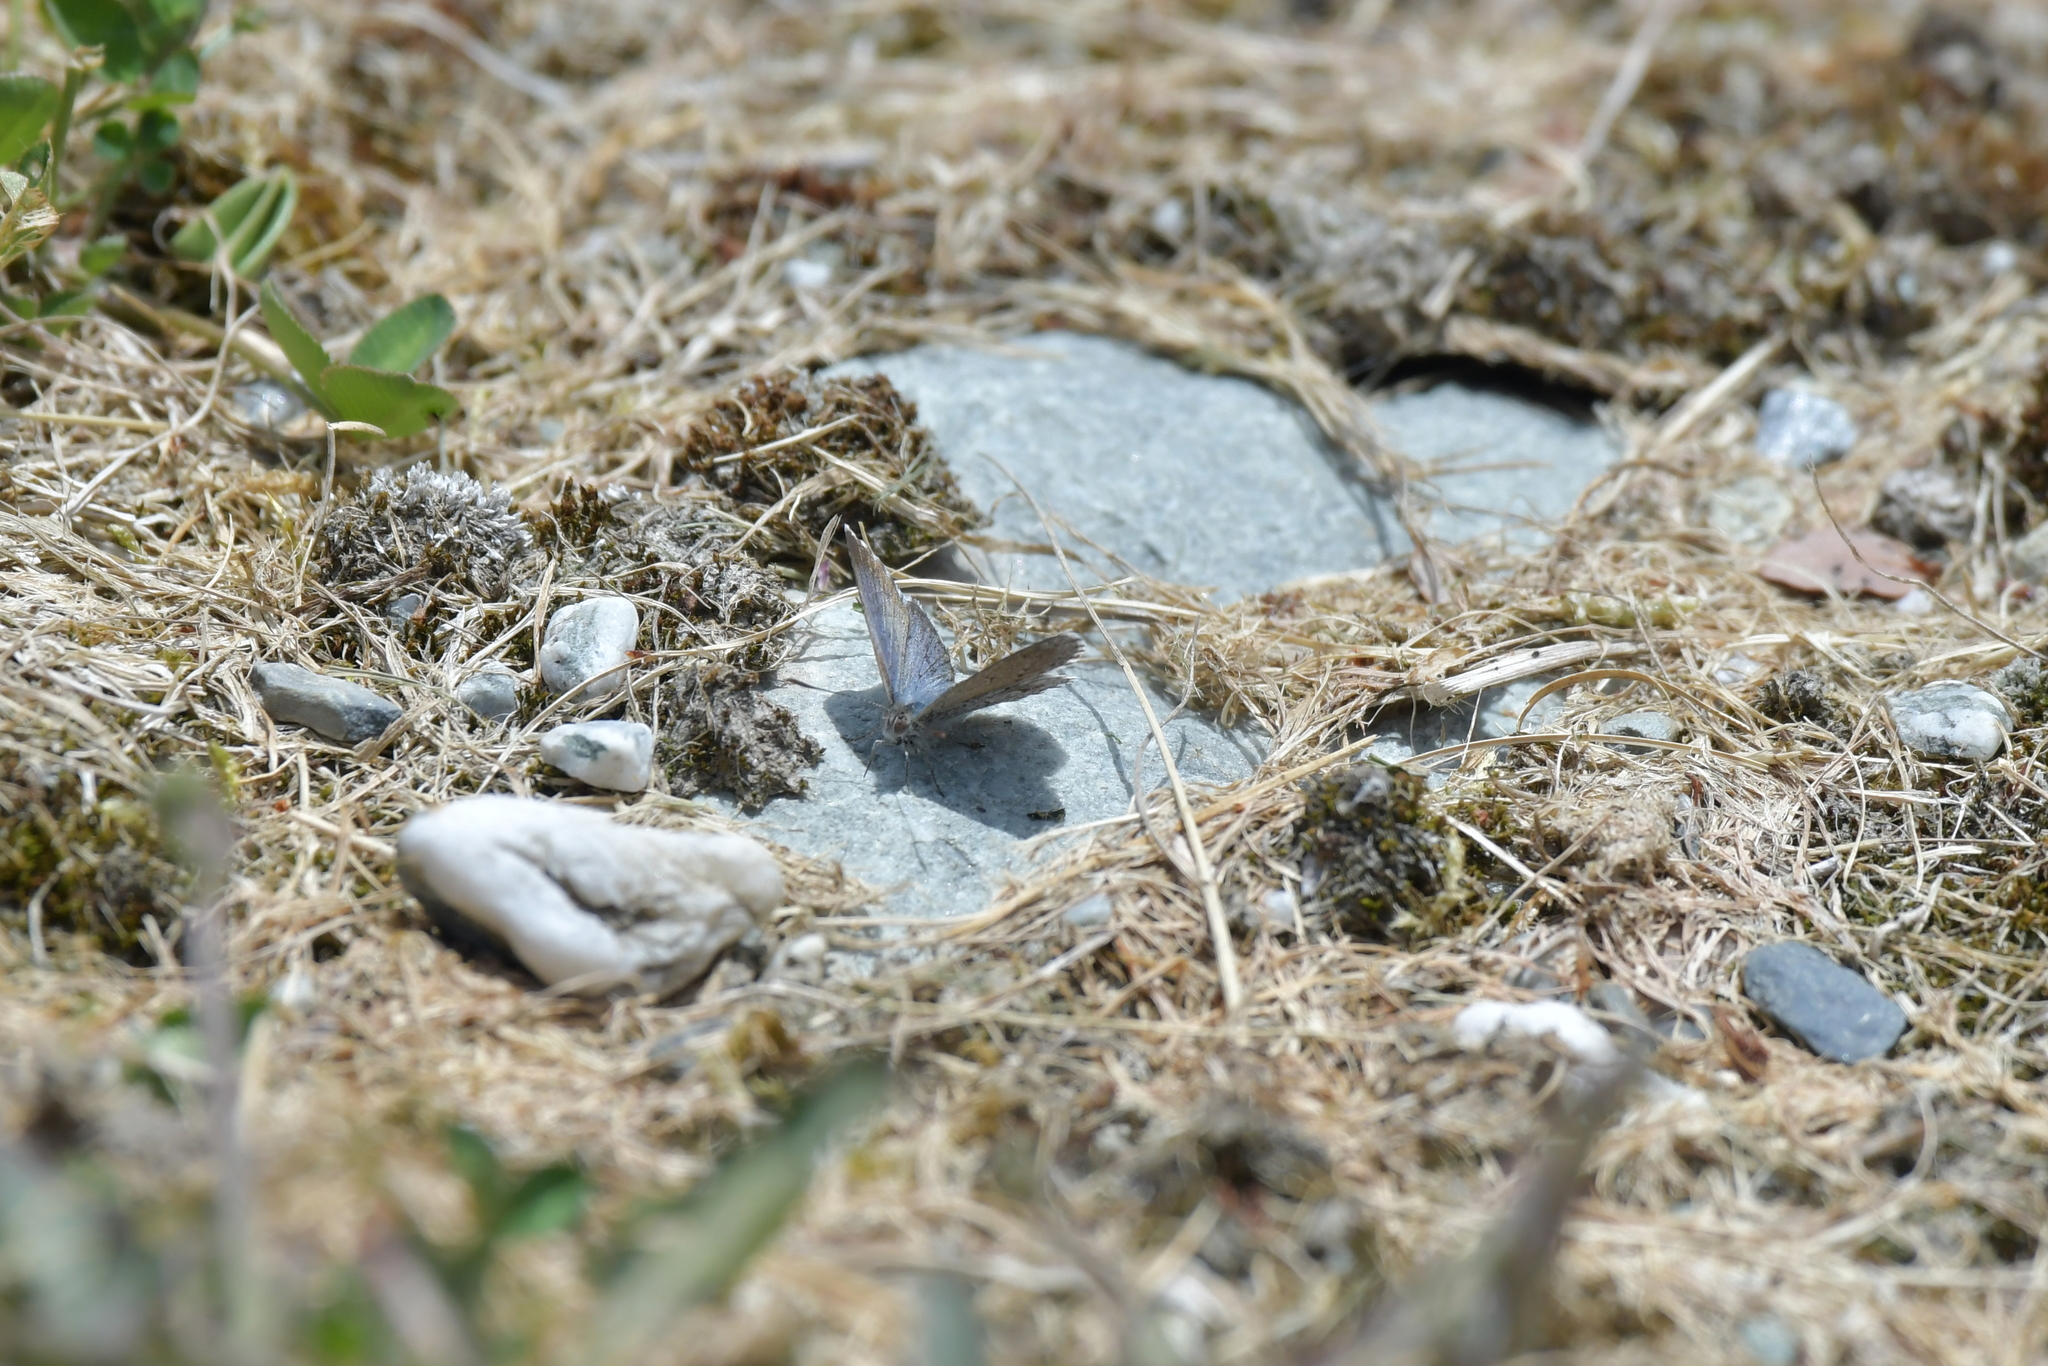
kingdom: Animalia
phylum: Arthropoda
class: Insecta
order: Lepidoptera
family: Lycaenidae
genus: Zizina
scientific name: Zizina oxleyi
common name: Southern blue
